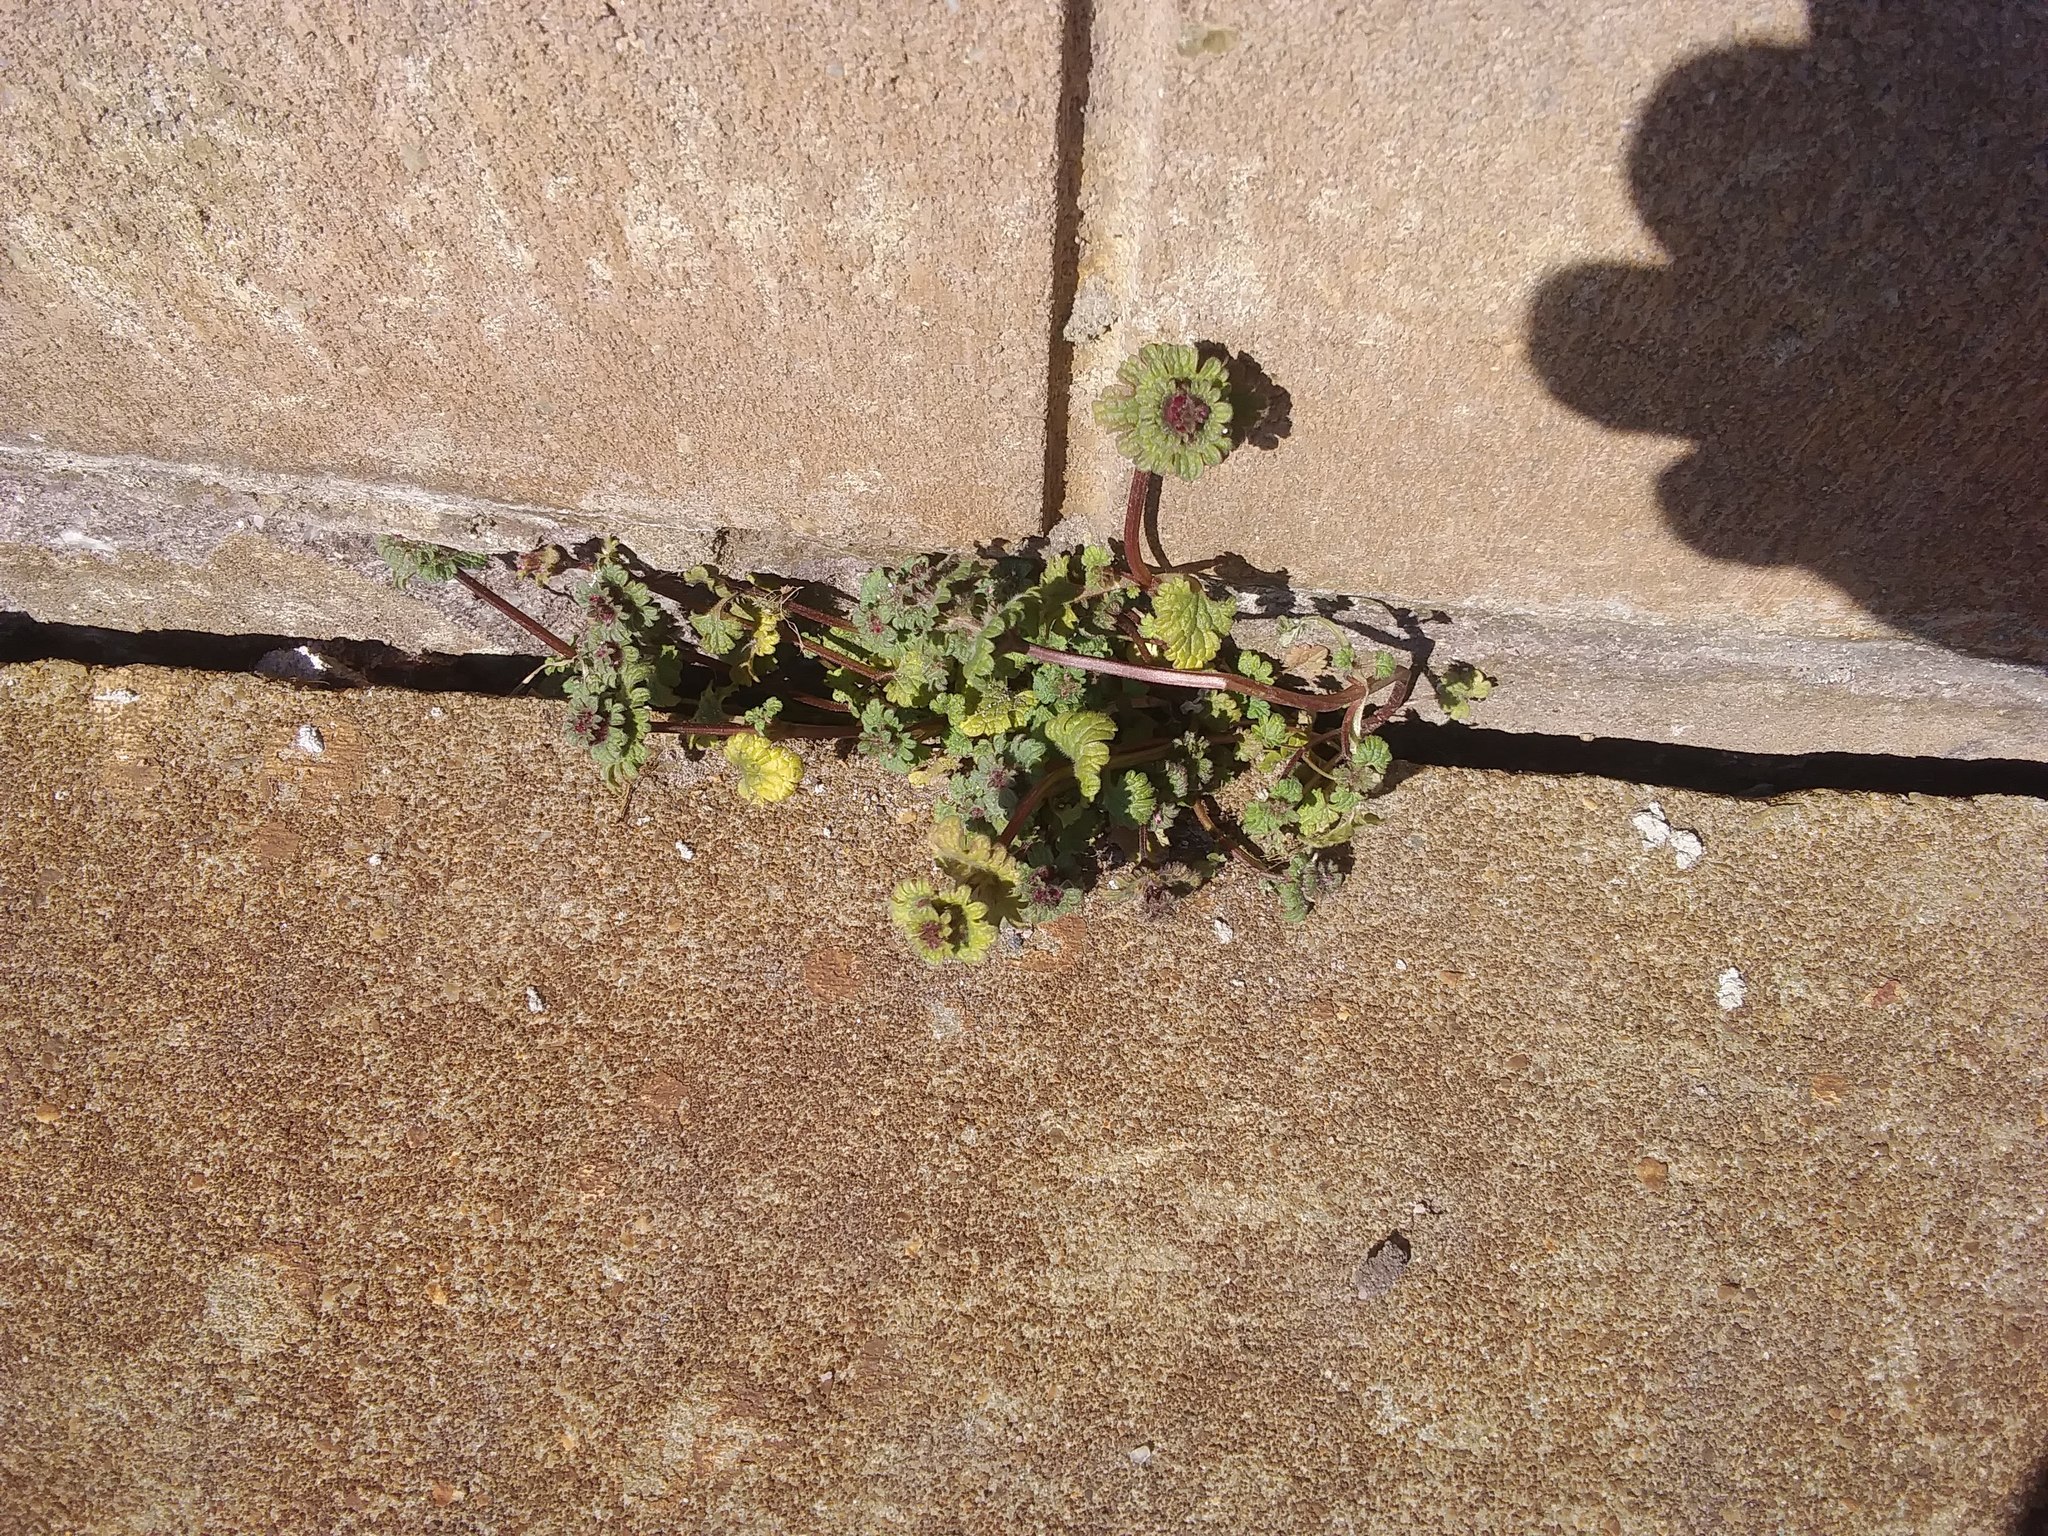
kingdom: Plantae
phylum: Tracheophyta
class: Magnoliopsida
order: Lamiales
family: Lamiaceae
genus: Lamium
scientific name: Lamium amplexicaule
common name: Henbit dead-nettle
